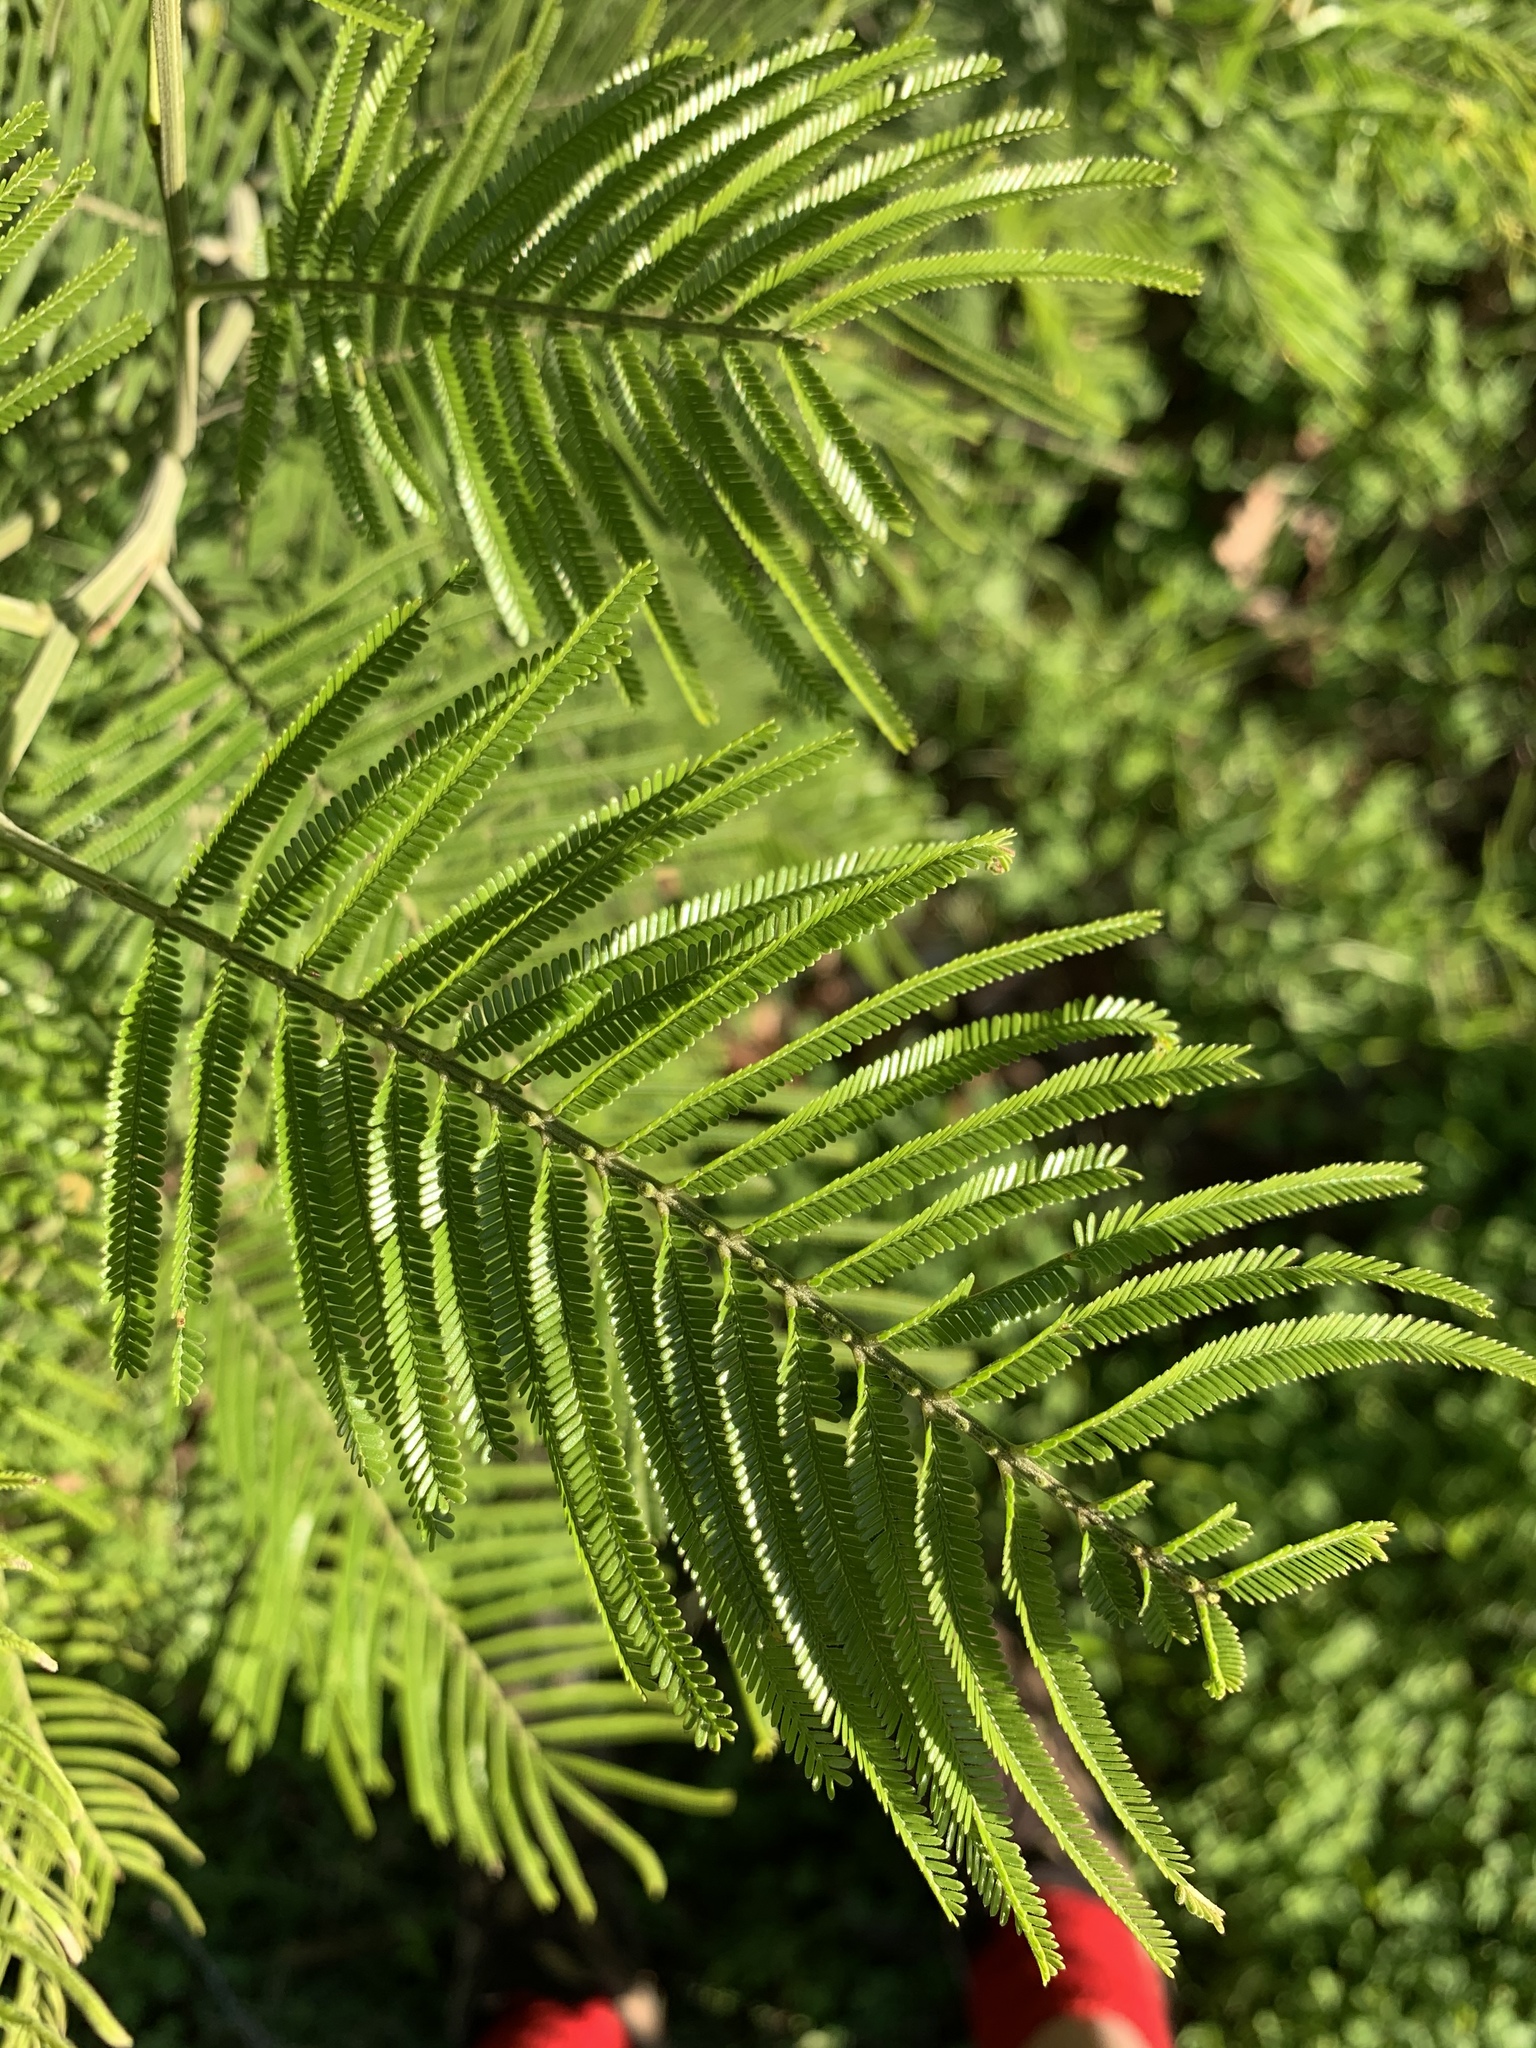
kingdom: Plantae
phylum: Tracheophyta
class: Magnoliopsida
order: Fabales
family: Fabaceae
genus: Acacia
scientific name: Acacia mearnsii
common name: Black wattle
